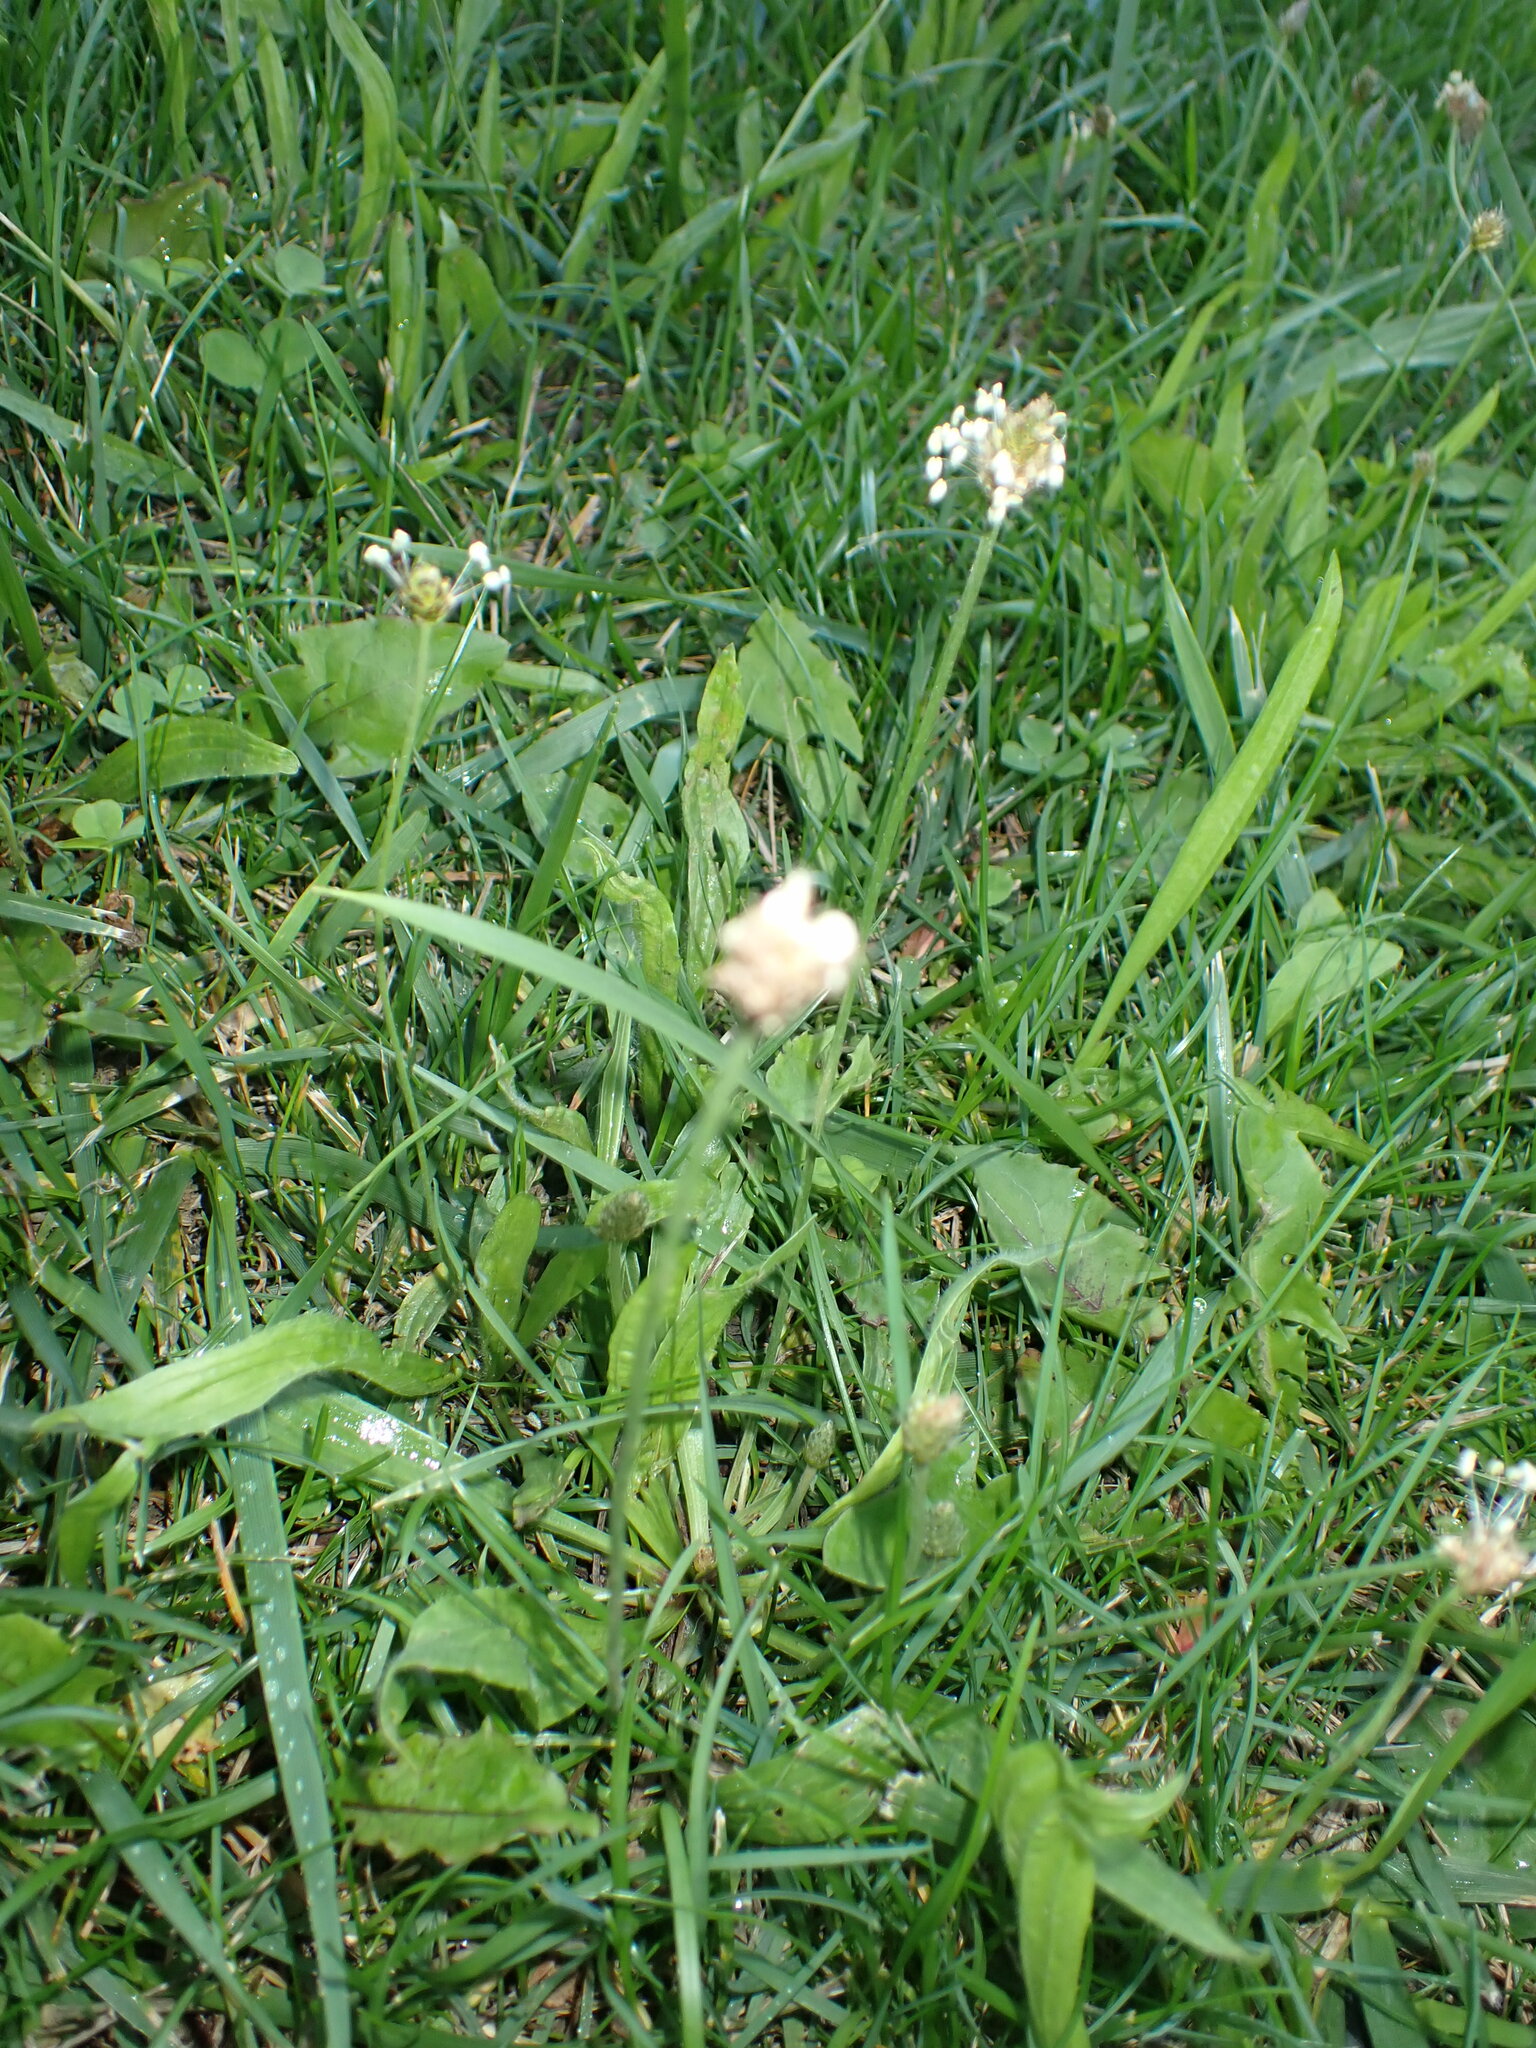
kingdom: Plantae
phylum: Tracheophyta
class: Magnoliopsida
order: Fabales
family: Fabaceae
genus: Trifolium
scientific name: Trifolium repens
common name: White clover
